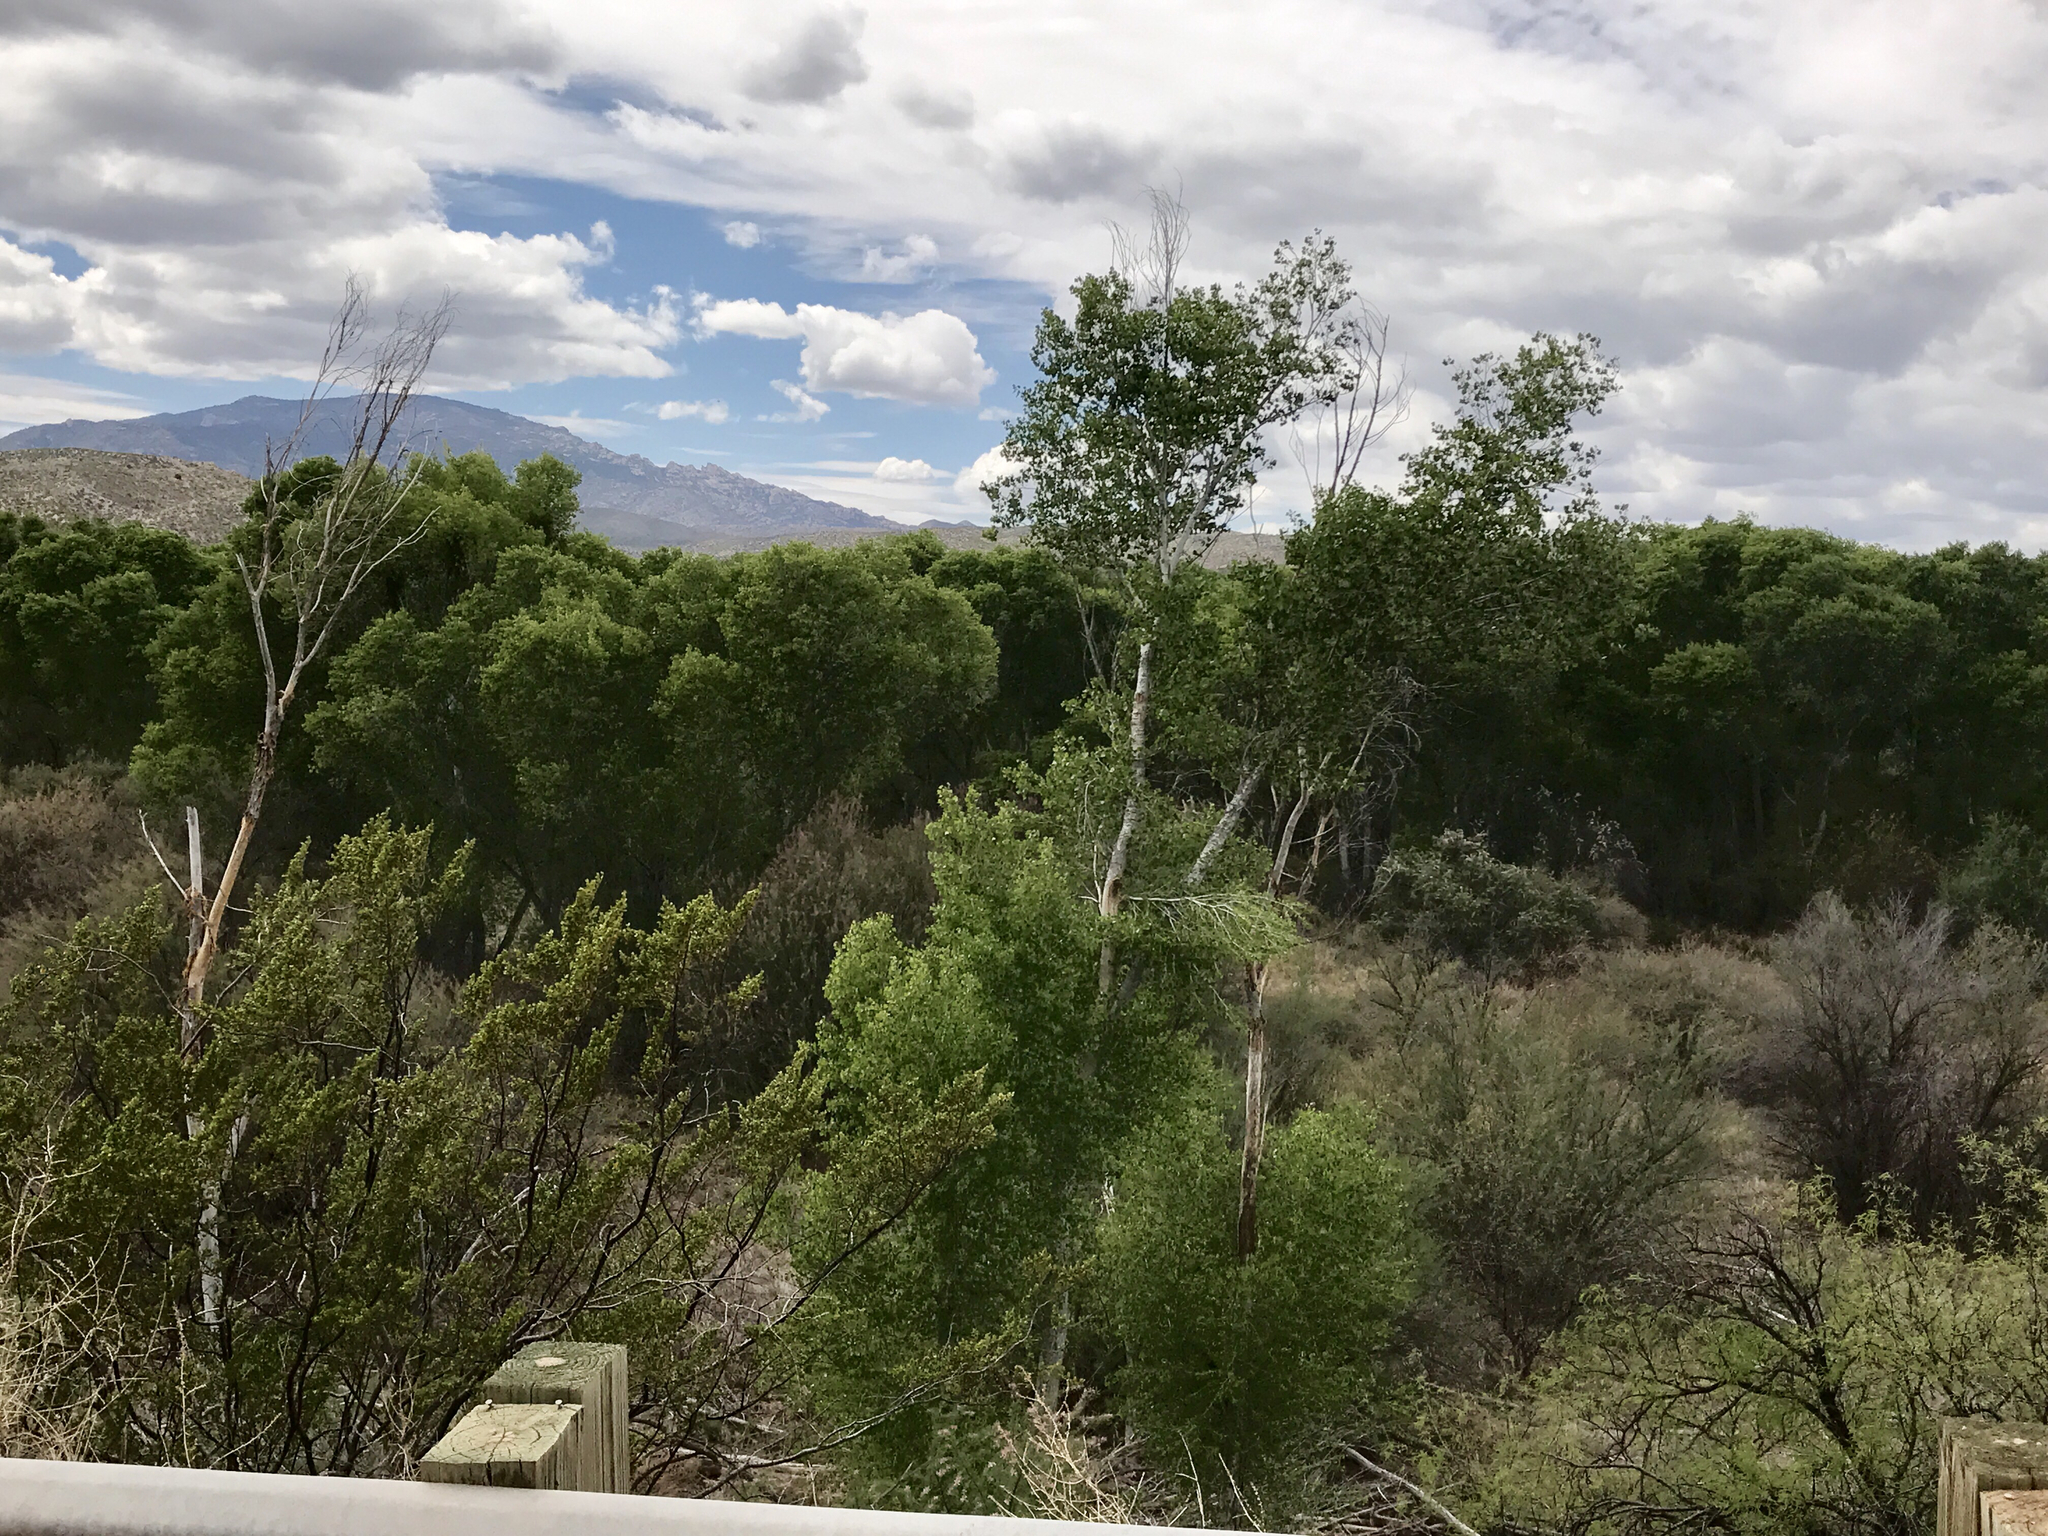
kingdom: Plantae
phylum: Tracheophyta
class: Magnoliopsida
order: Malpighiales
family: Salicaceae
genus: Populus
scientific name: Populus fremontii
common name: Fremont's cottonwood
